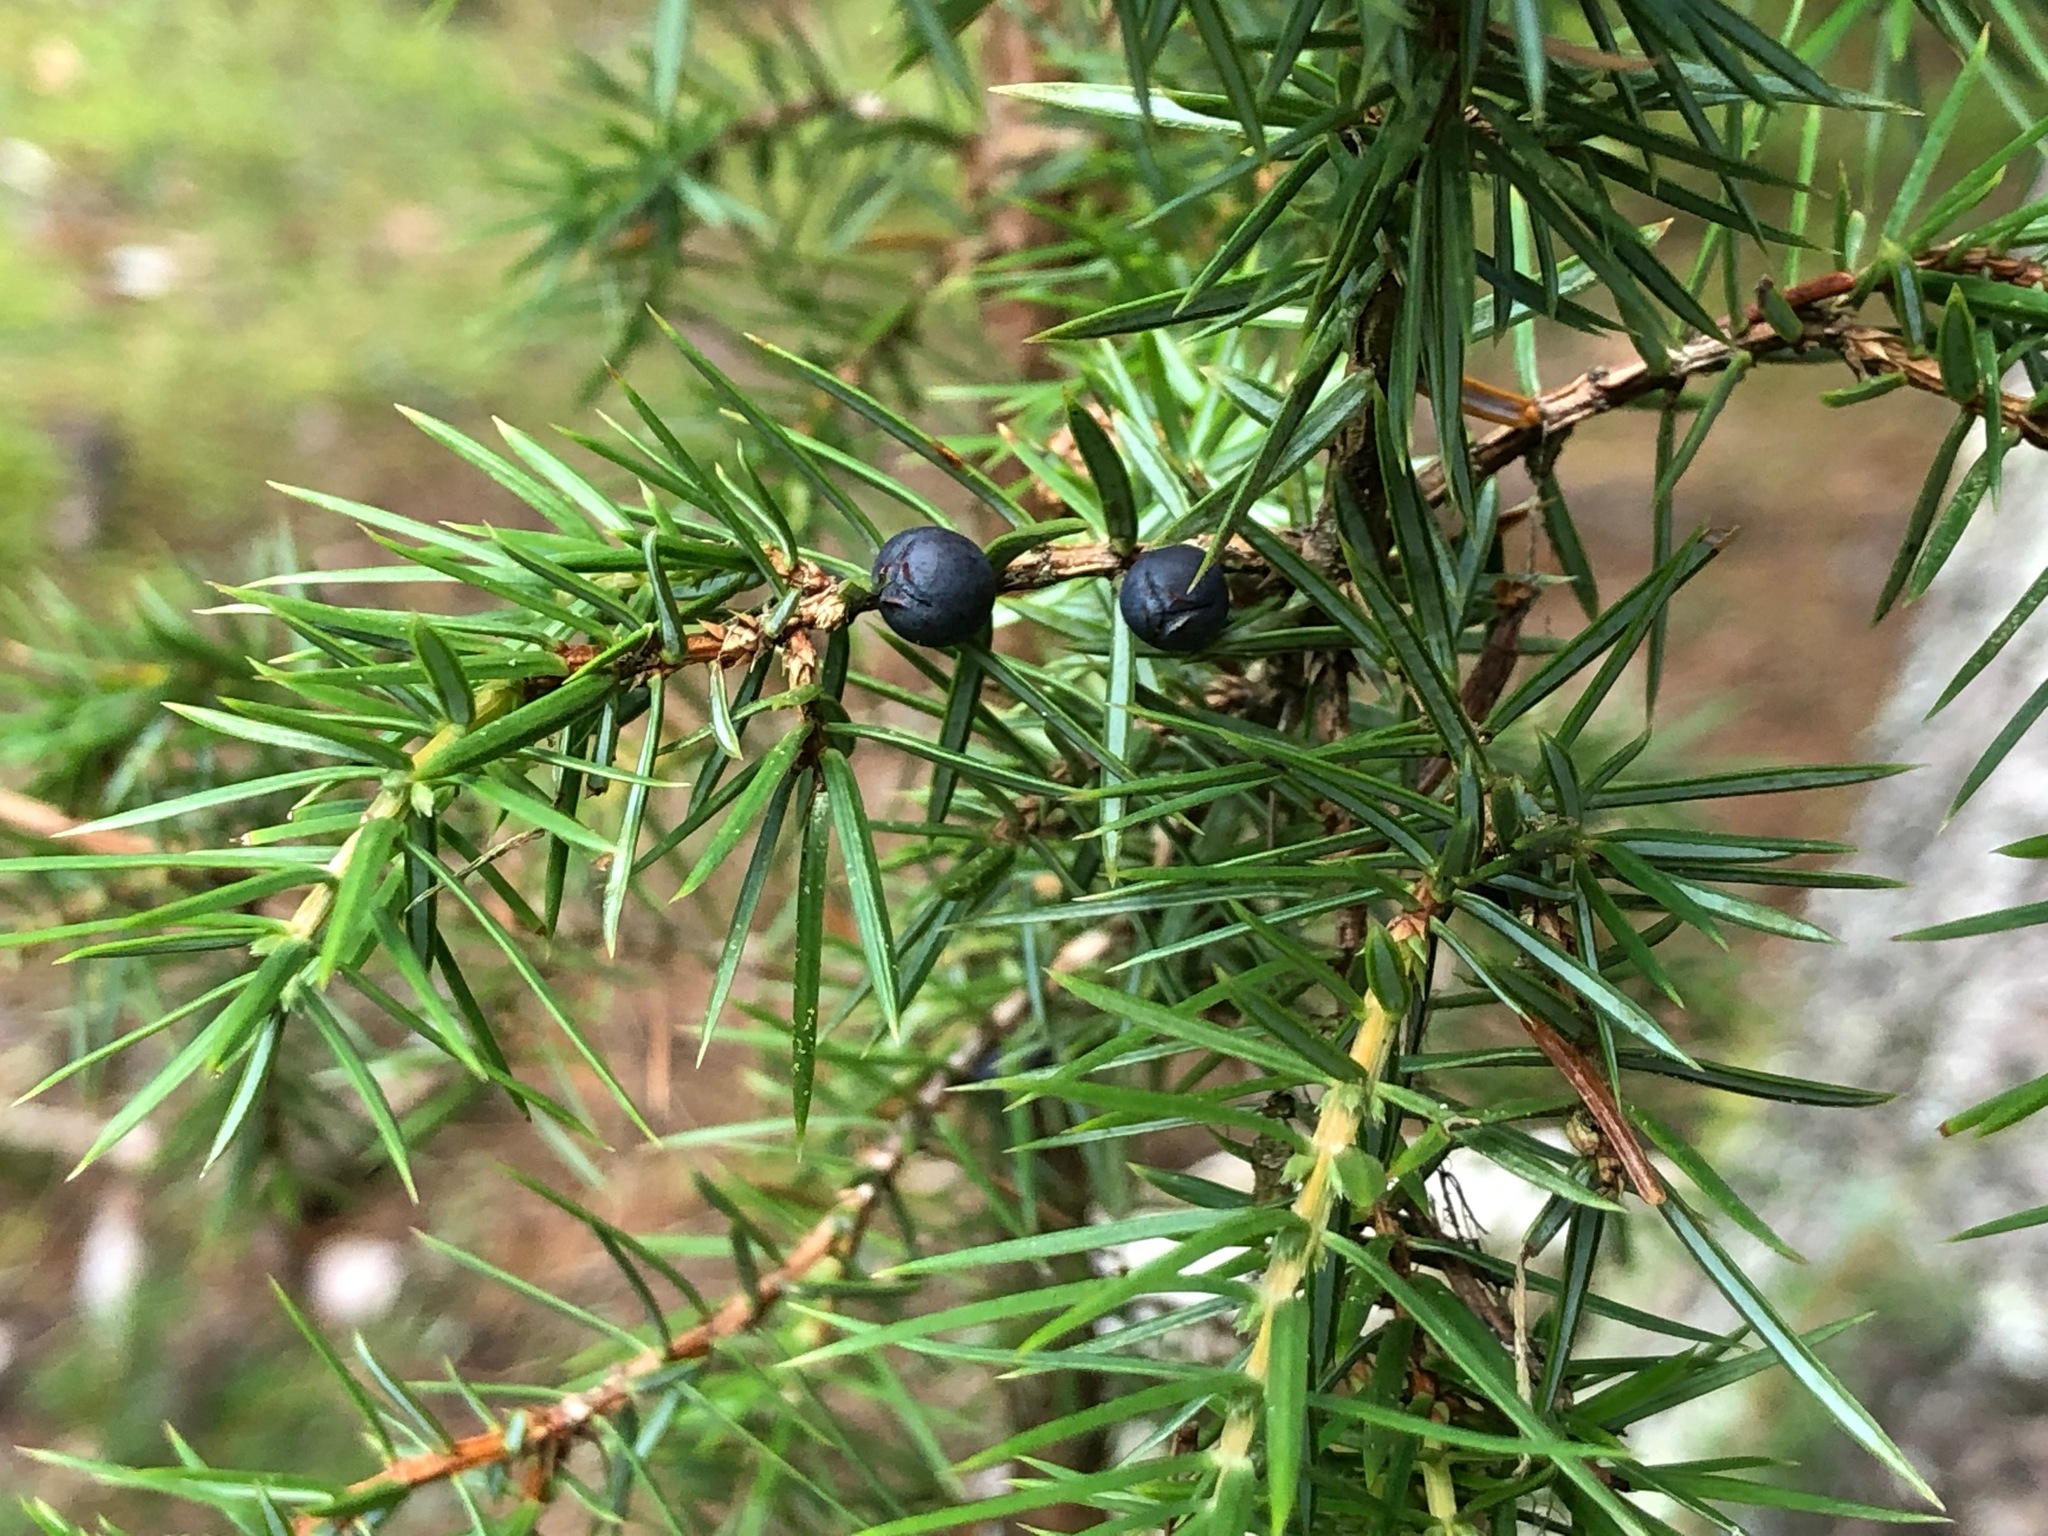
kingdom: Plantae
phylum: Tracheophyta
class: Pinopsida
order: Pinales
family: Cupressaceae
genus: Juniperus
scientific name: Juniperus communis
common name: Common juniper
